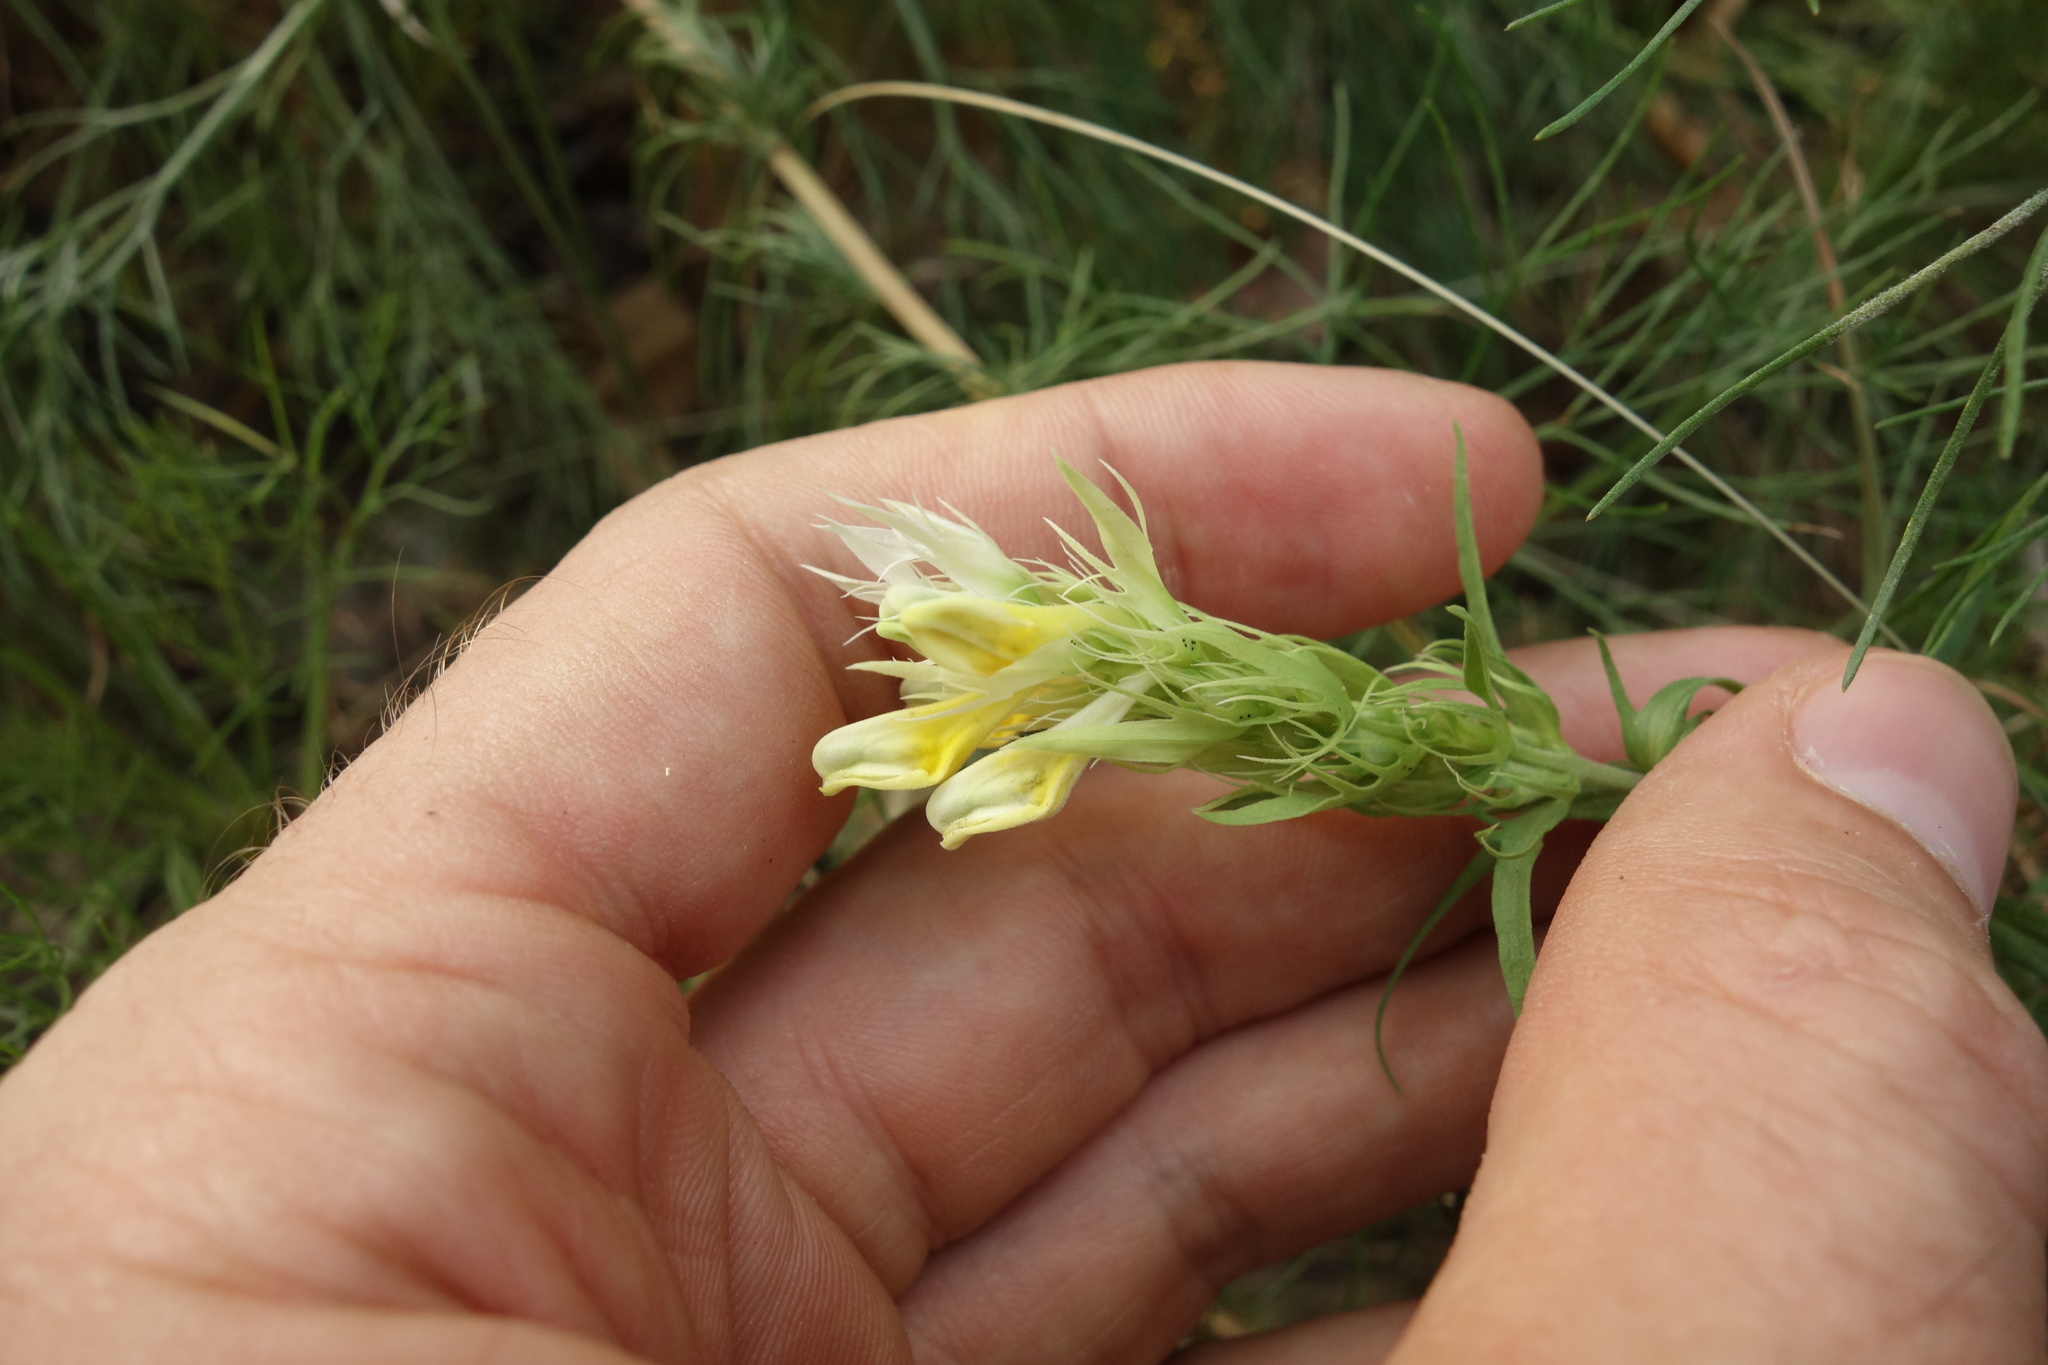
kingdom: Plantae
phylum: Tracheophyta
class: Magnoliopsida
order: Lamiales
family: Orobanchaceae
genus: Melampyrum
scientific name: Melampyrum arvense
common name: Field cow-wheat
